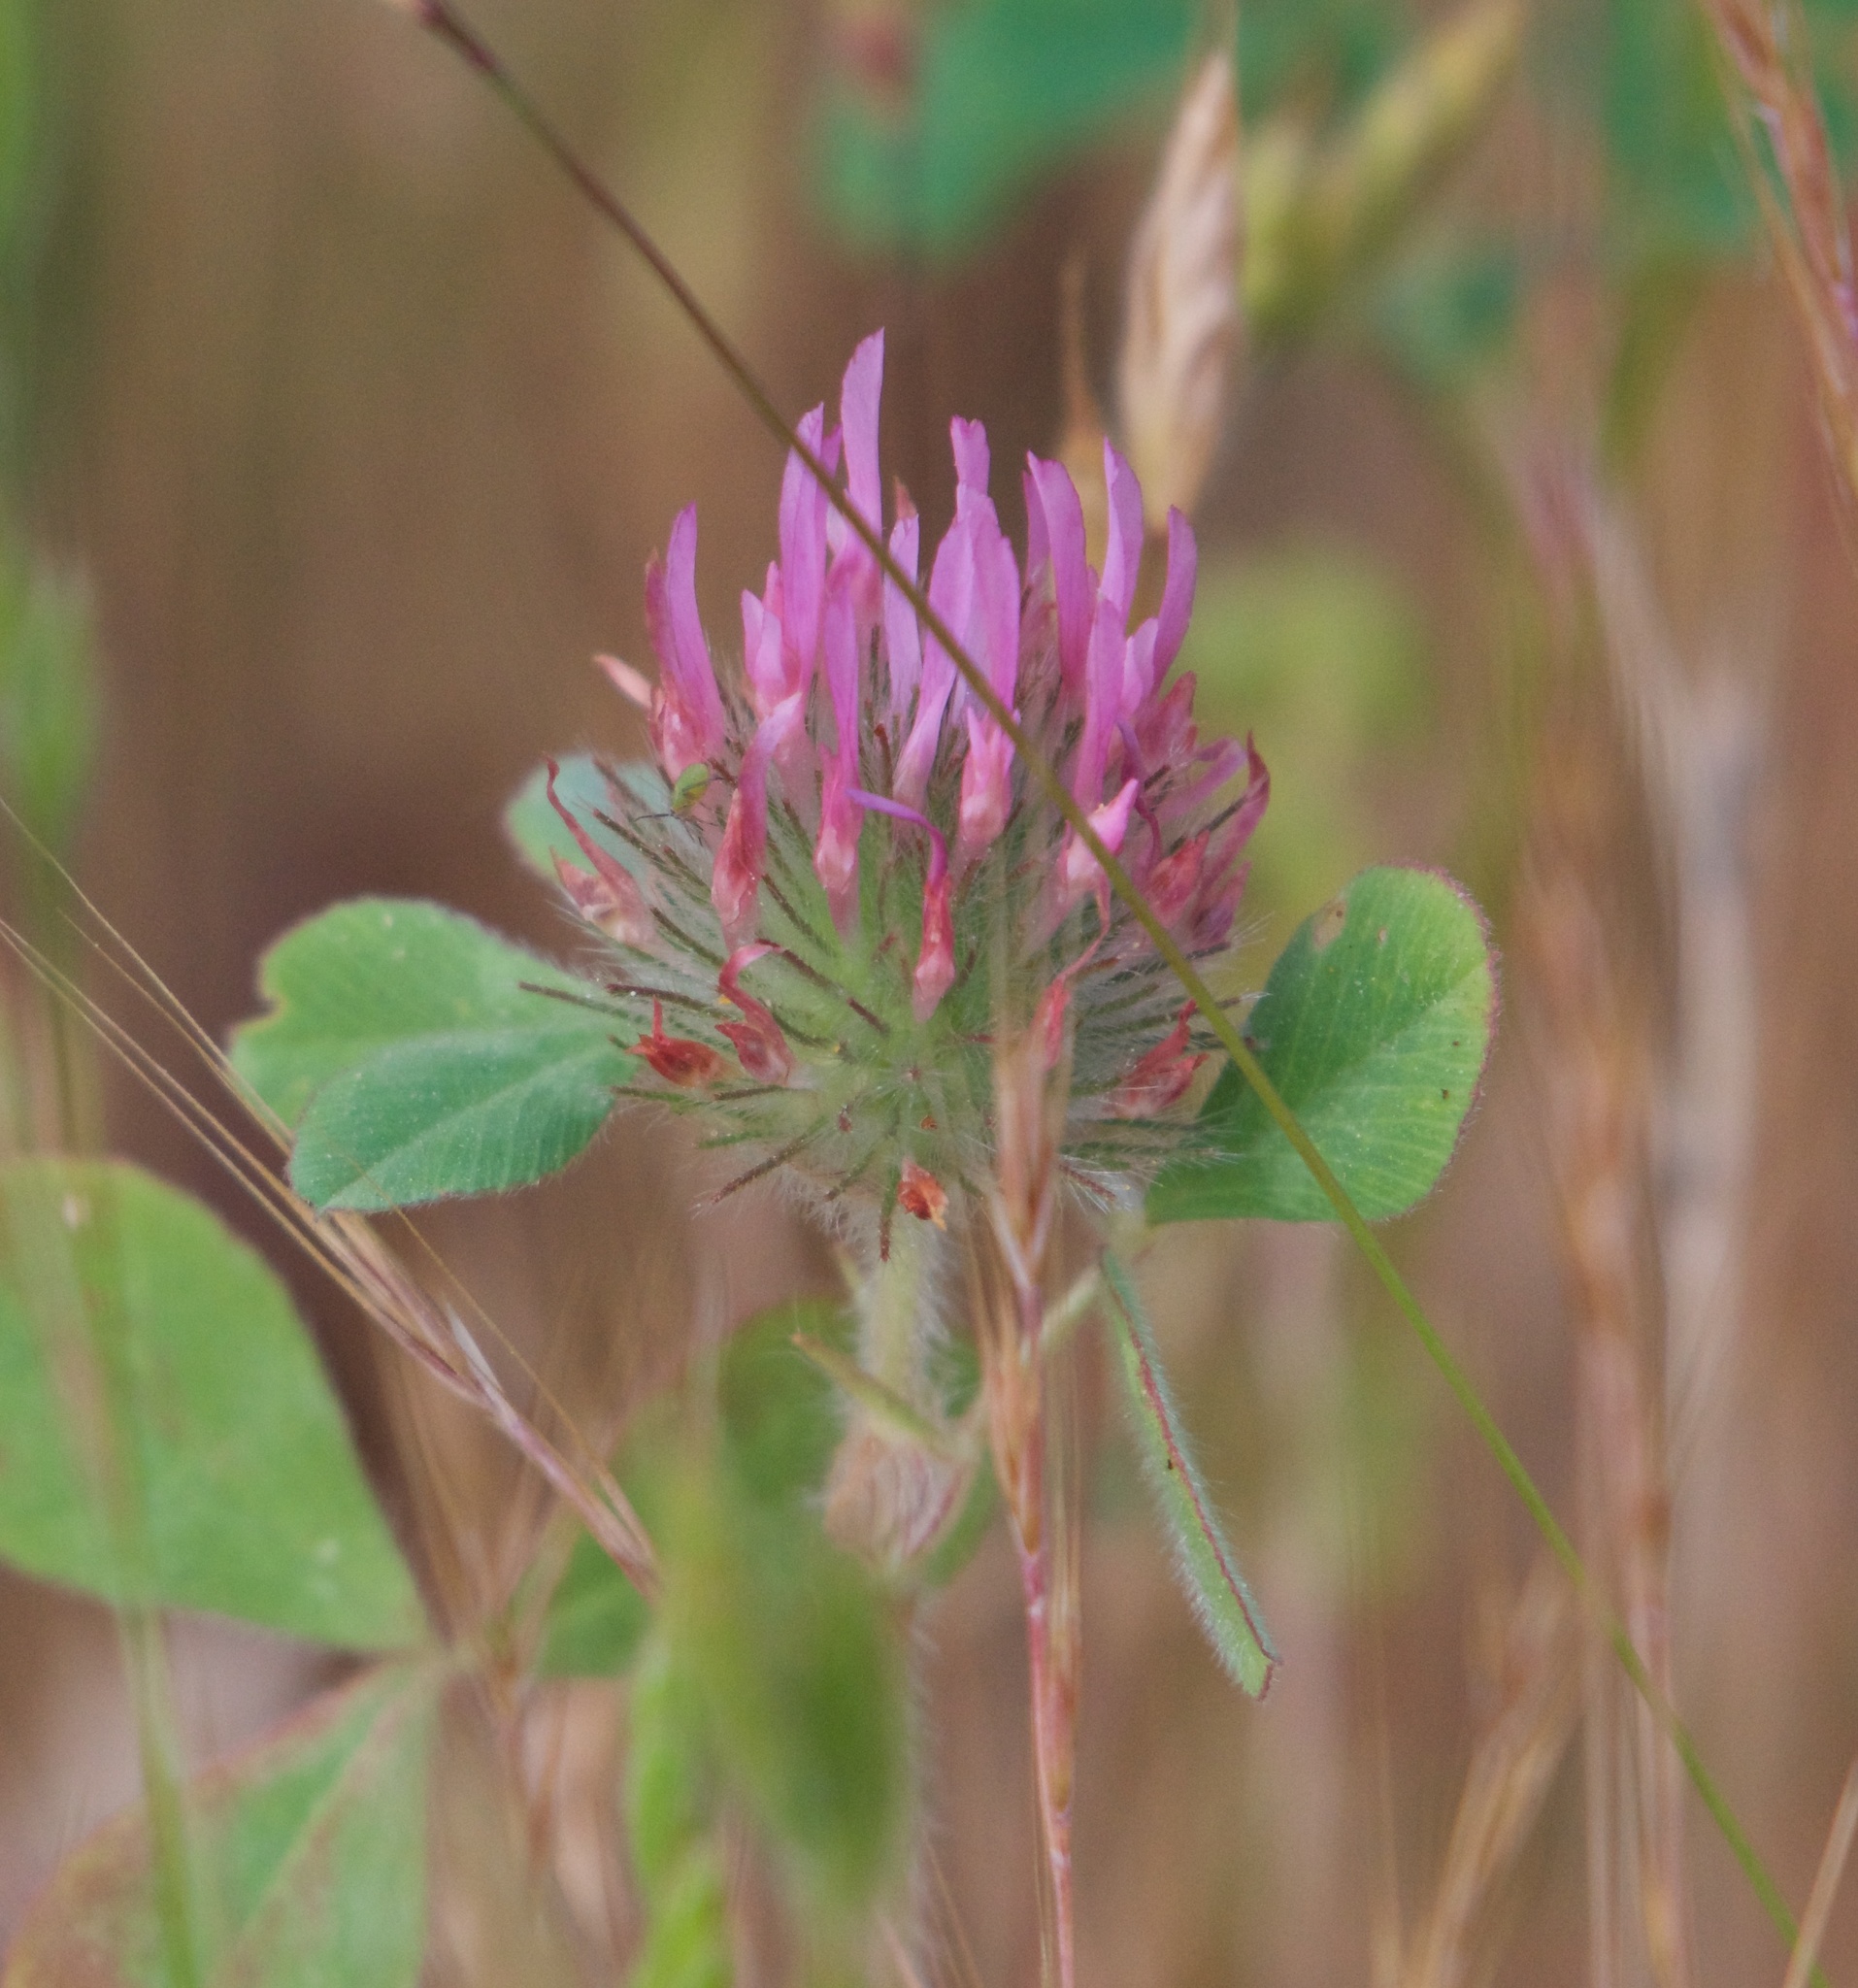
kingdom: Plantae
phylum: Tracheophyta
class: Magnoliopsida
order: Fabales
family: Fabaceae
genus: Trifolium
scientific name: Trifolium hirtum
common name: Rose clover
